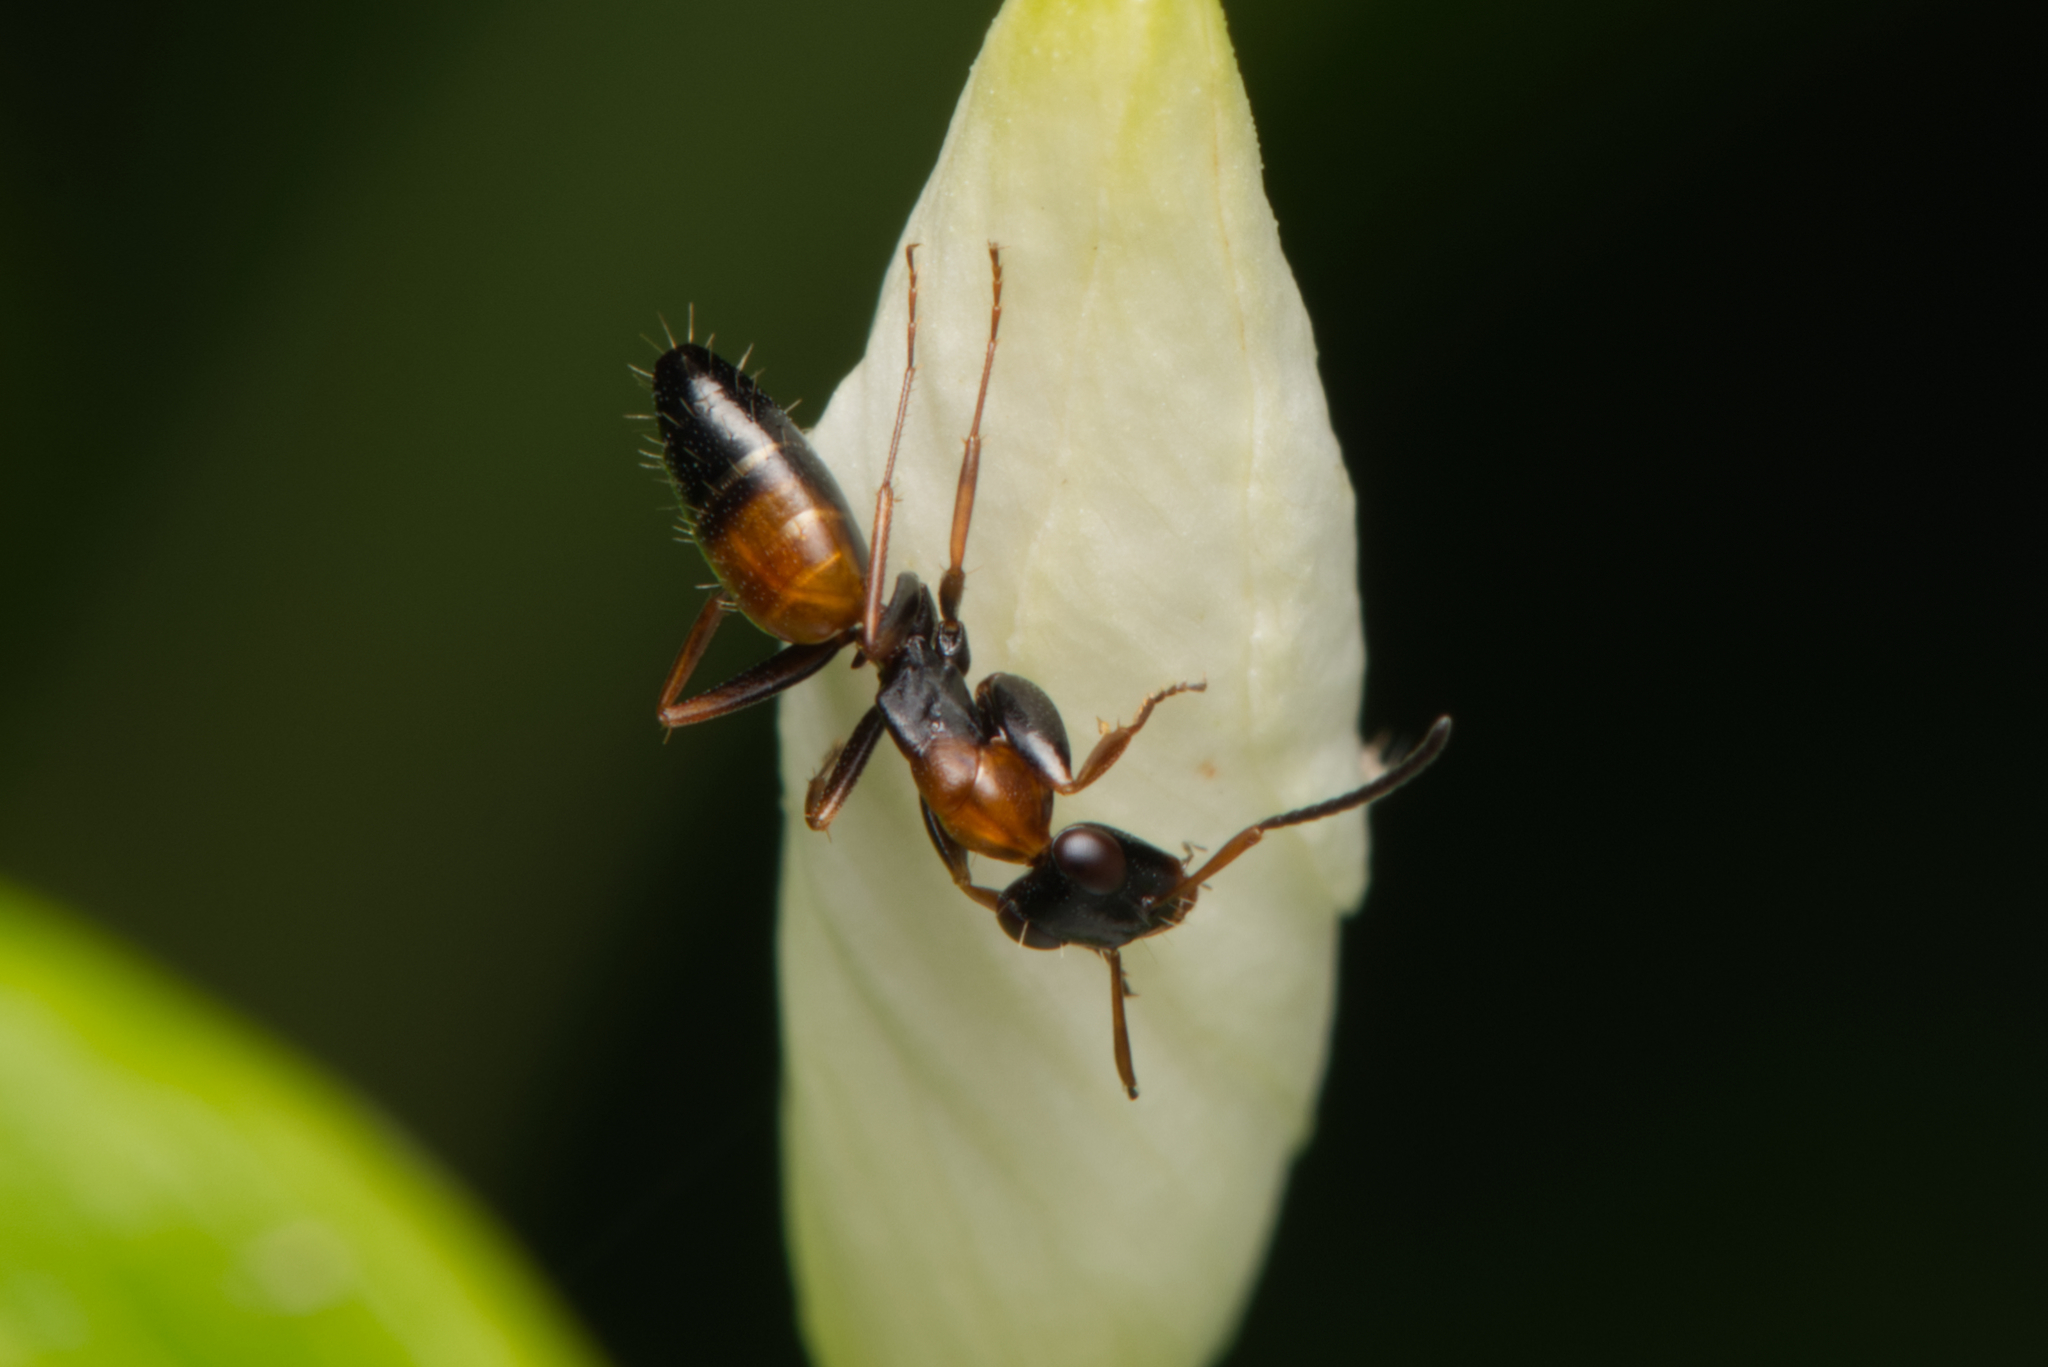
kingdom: Animalia
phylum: Arthropoda
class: Insecta
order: Hymenoptera
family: Formicidae
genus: Opisthopsis
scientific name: Opisthopsis pictus
